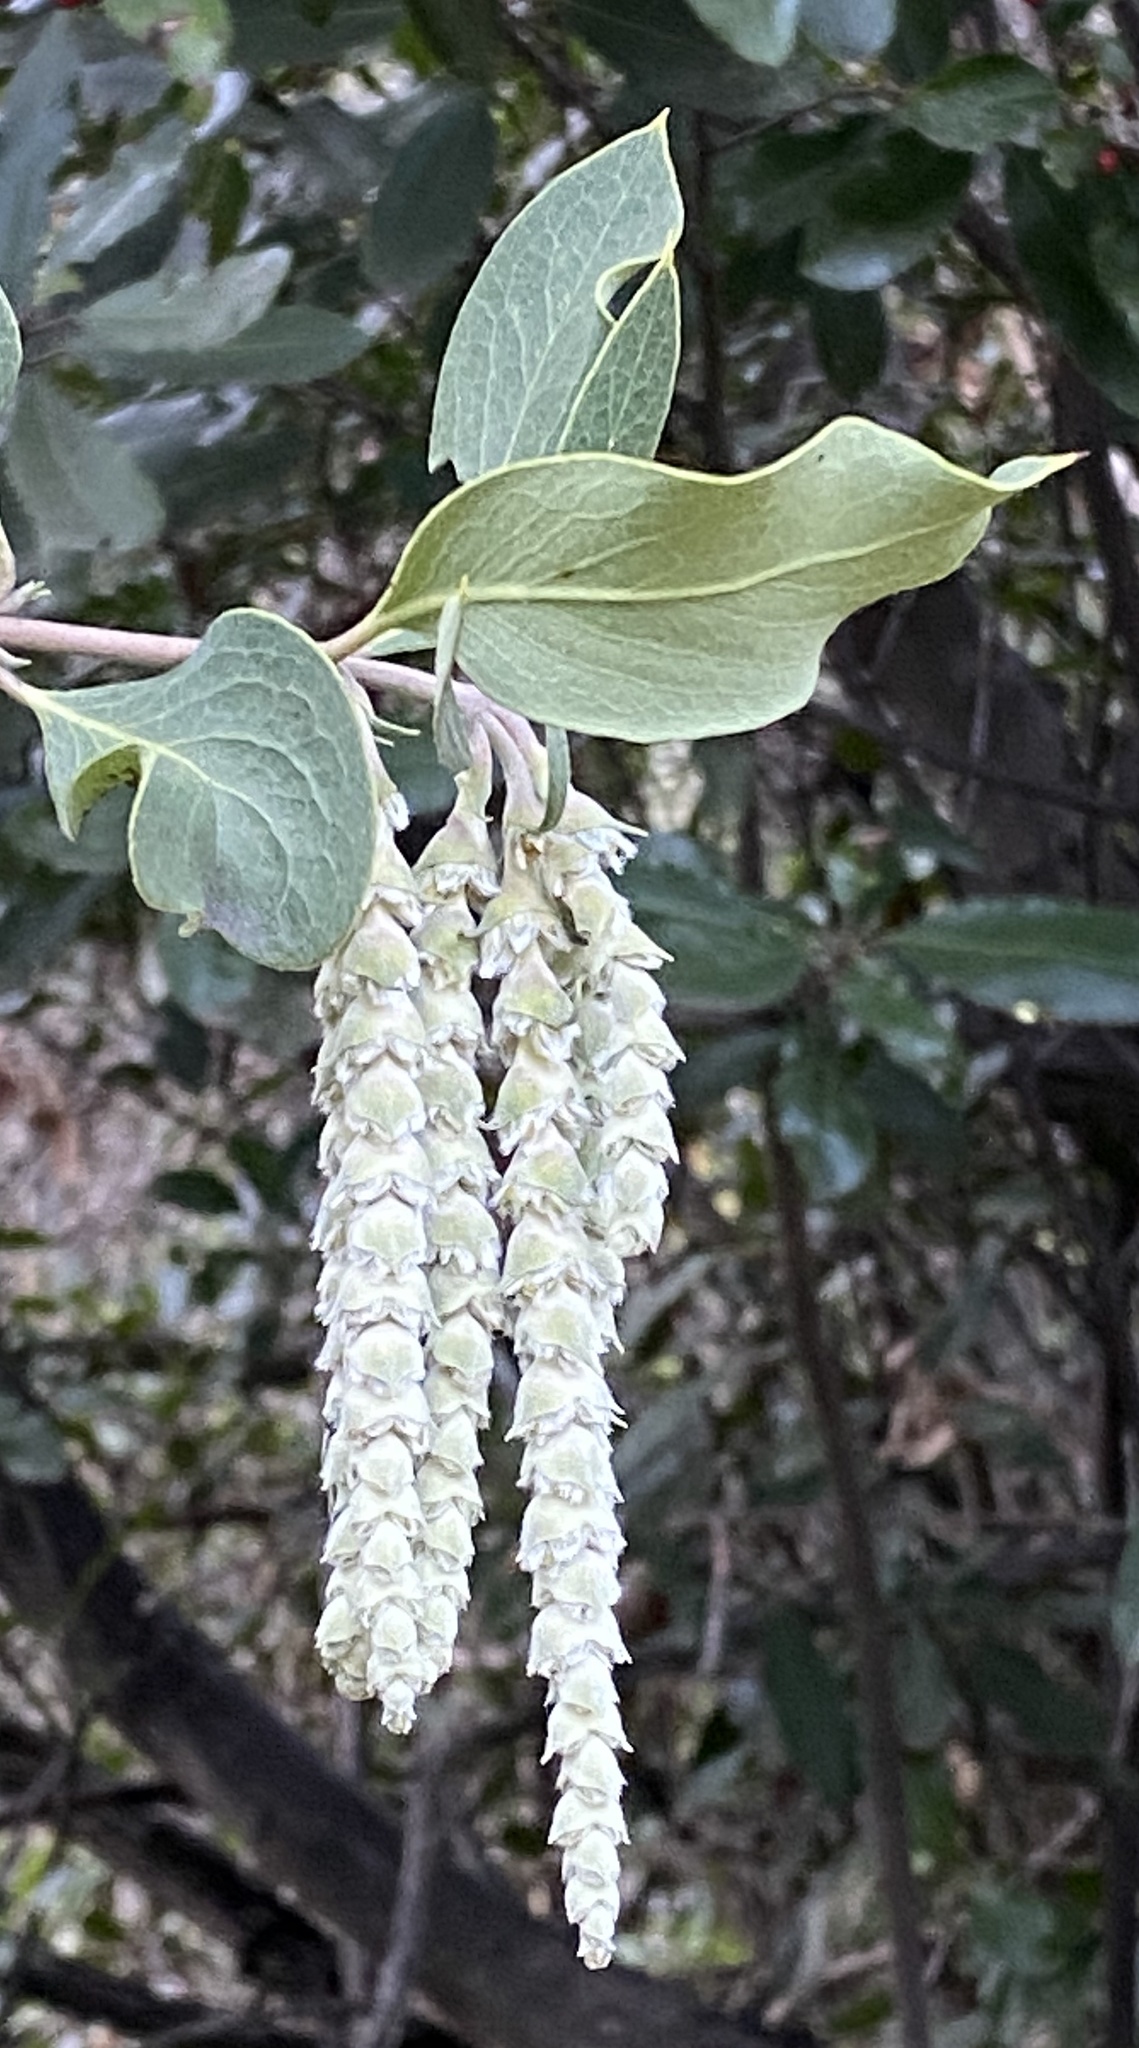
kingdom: Plantae
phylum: Tracheophyta
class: Magnoliopsida
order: Garryales
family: Garryaceae
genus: Garrya
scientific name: Garrya flavescens
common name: Ashy silk-tassel
